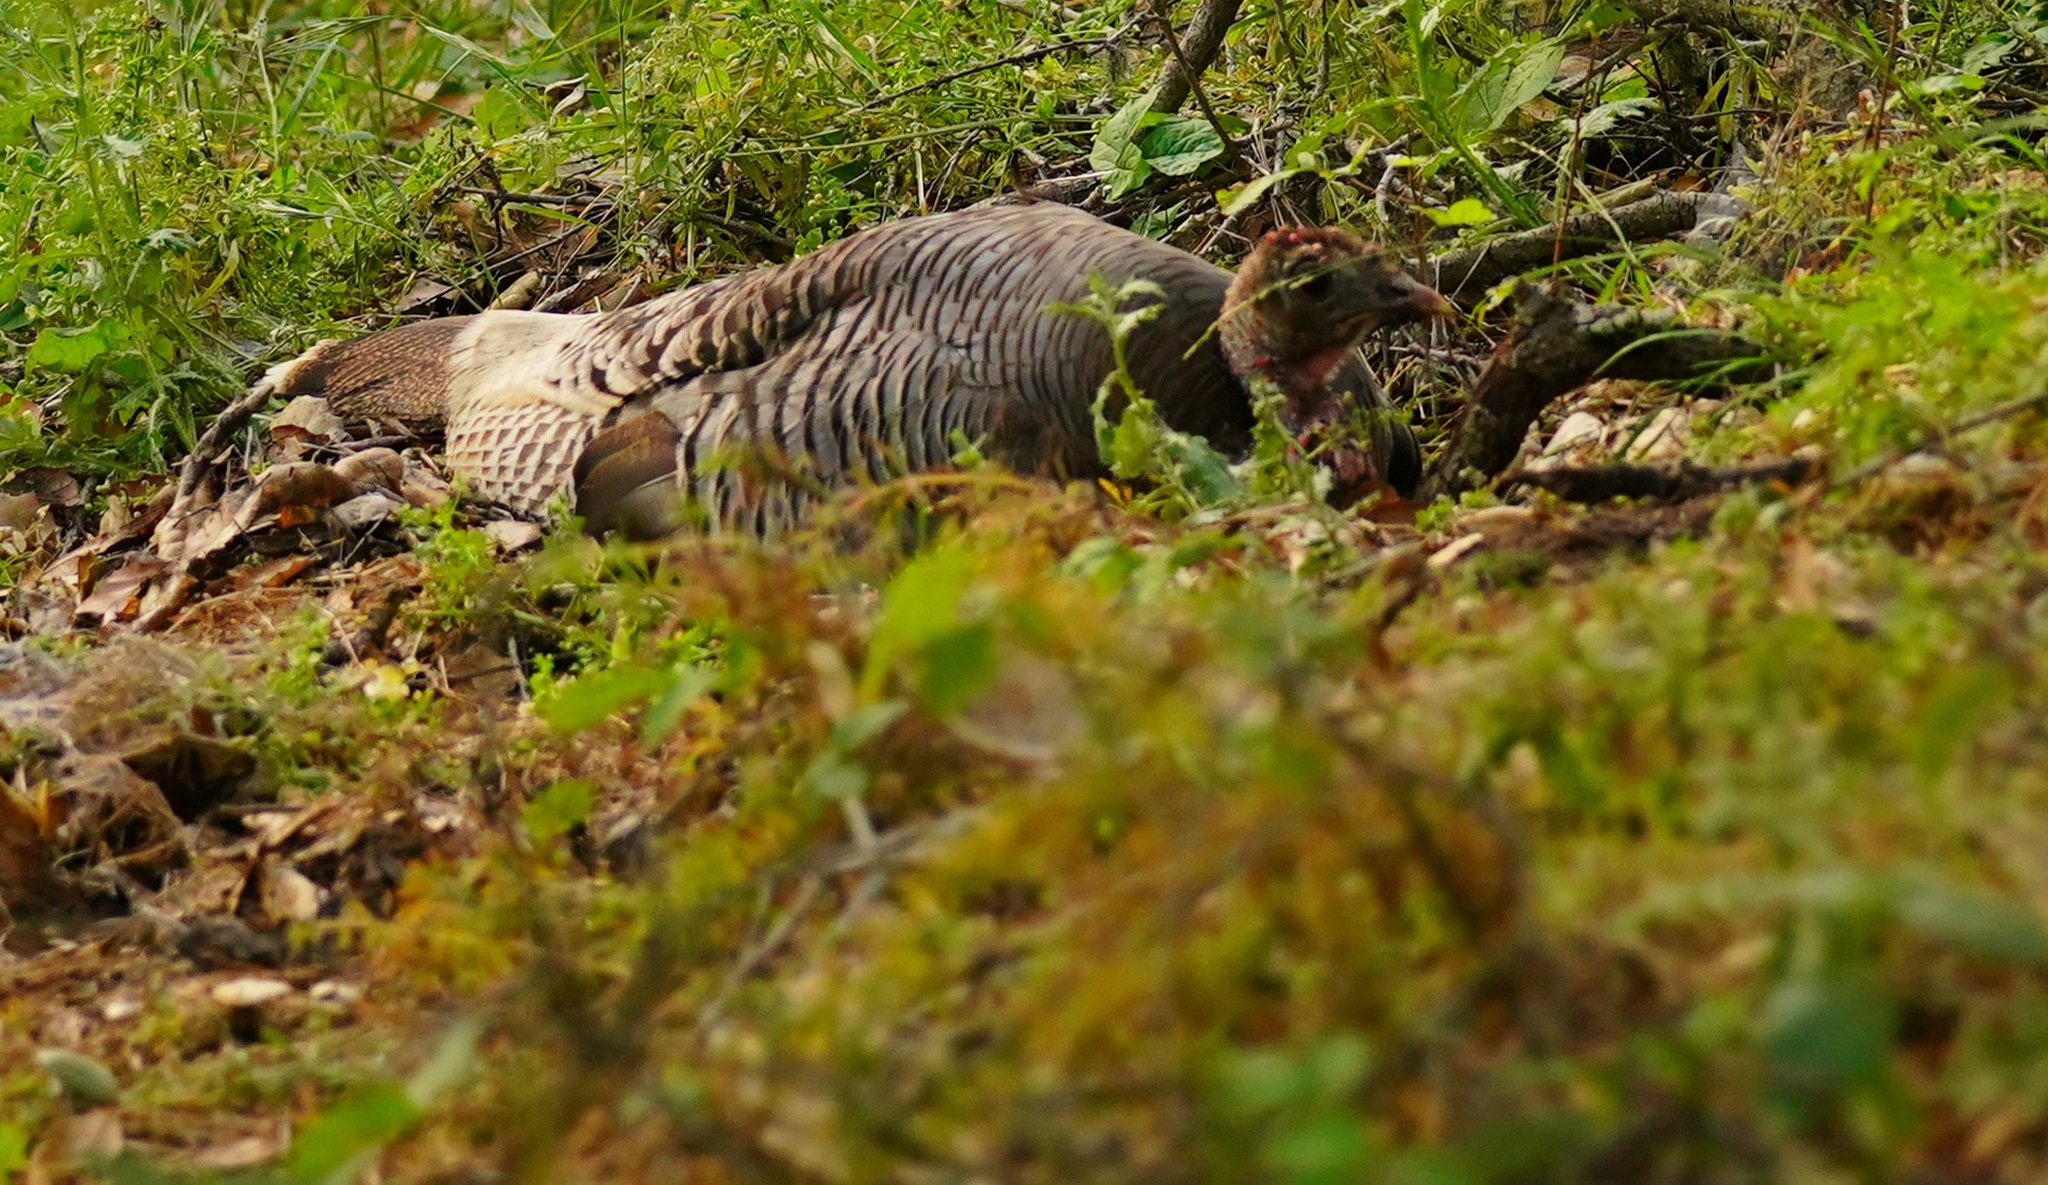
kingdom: Animalia
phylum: Chordata
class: Aves
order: Galliformes
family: Phasianidae
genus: Meleagris
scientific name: Meleagris gallopavo
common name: Wild turkey
